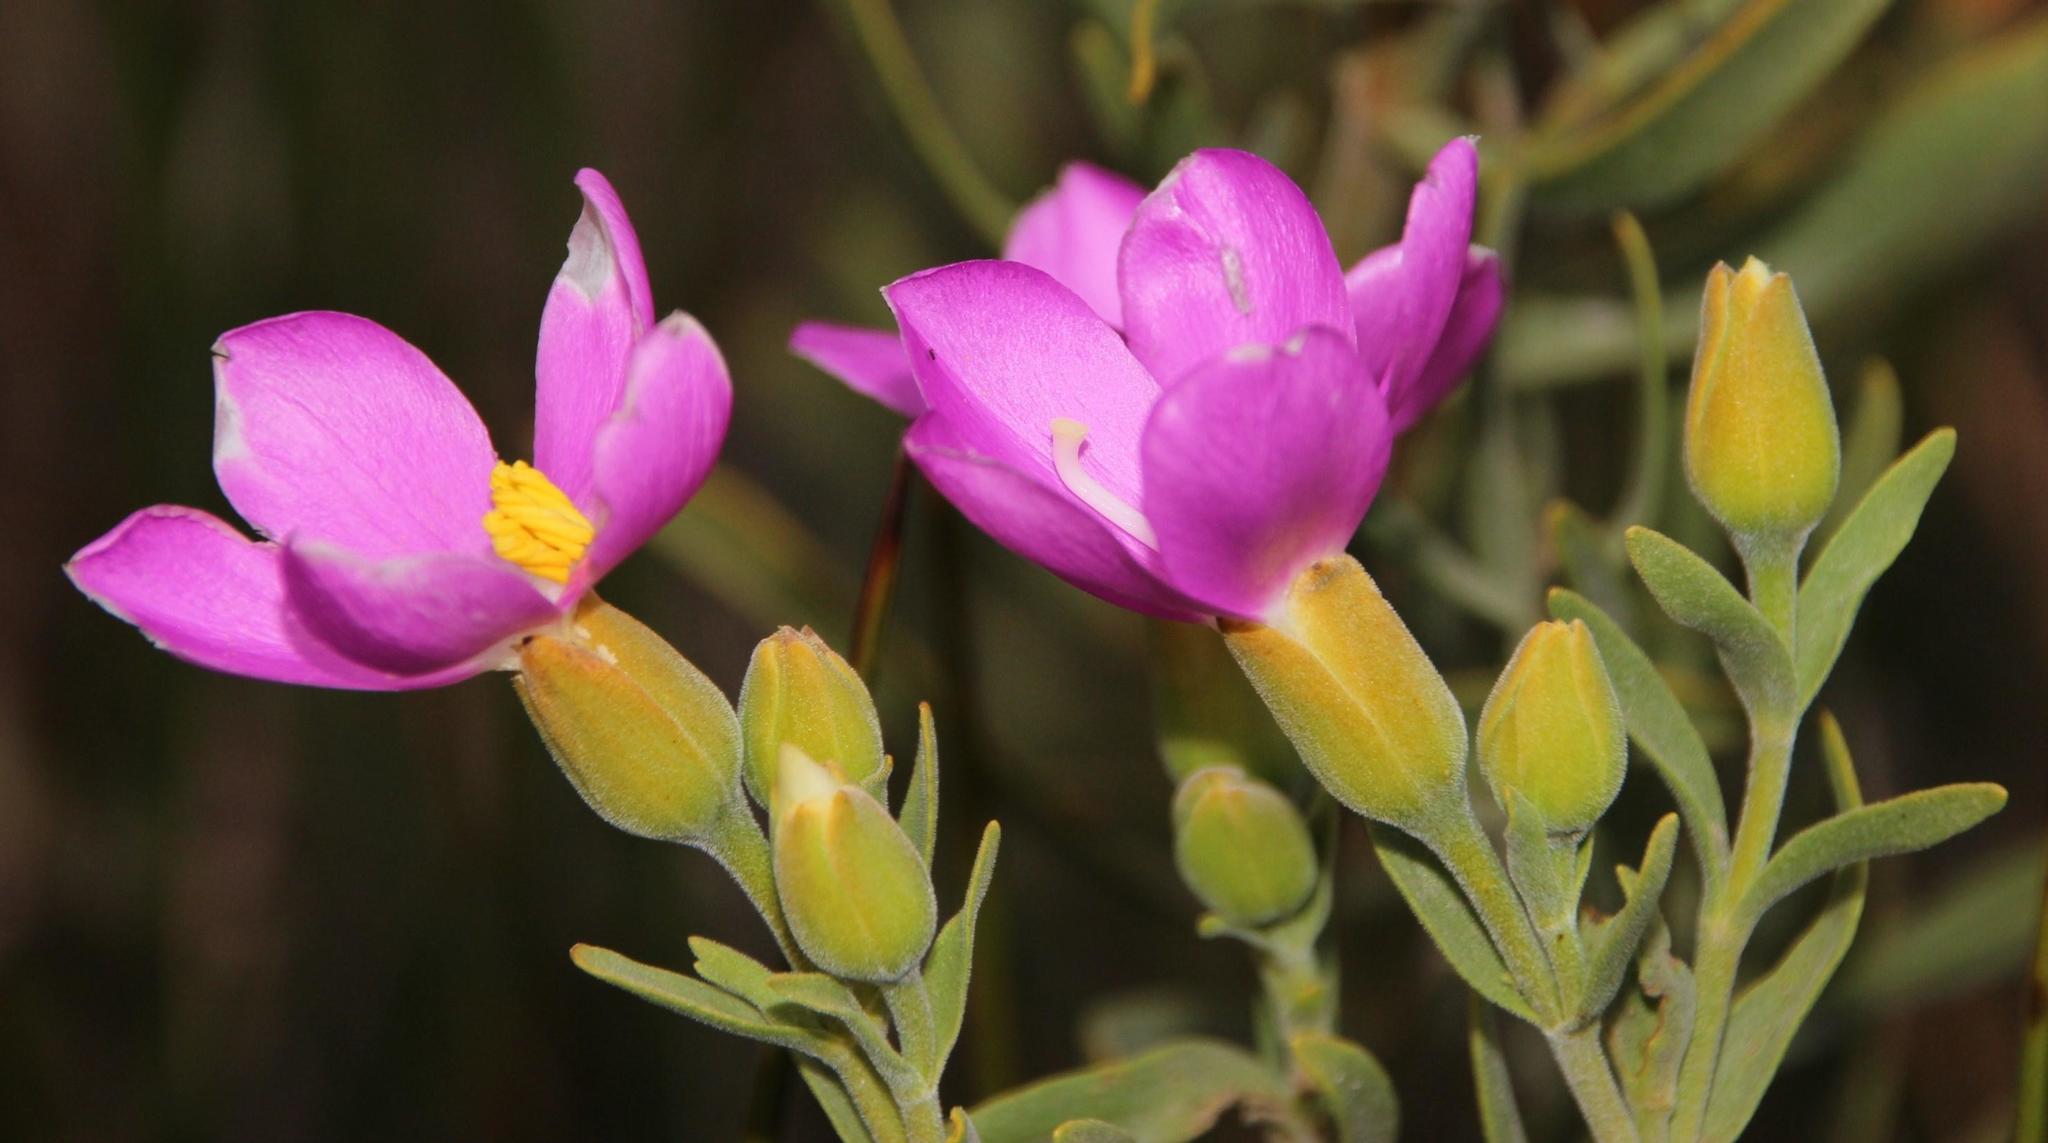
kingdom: Plantae
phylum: Tracheophyta
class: Magnoliopsida
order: Gentianales
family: Gentianaceae
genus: Orphium
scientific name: Orphium frutescens
